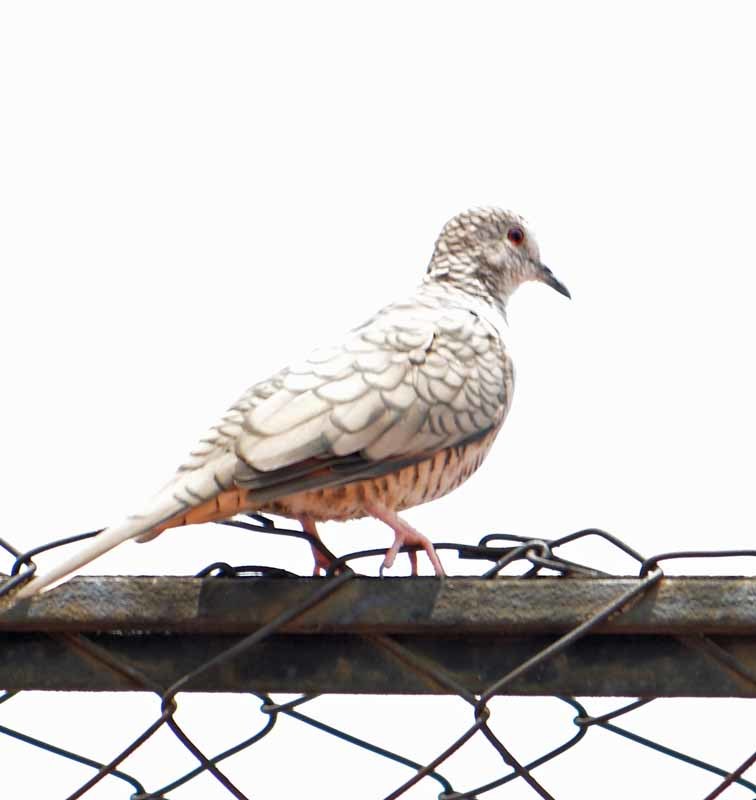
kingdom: Animalia
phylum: Chordata
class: Aves
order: Columbiformes
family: Columbidae
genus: Columbina
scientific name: Columbina inca
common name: Inca dove
